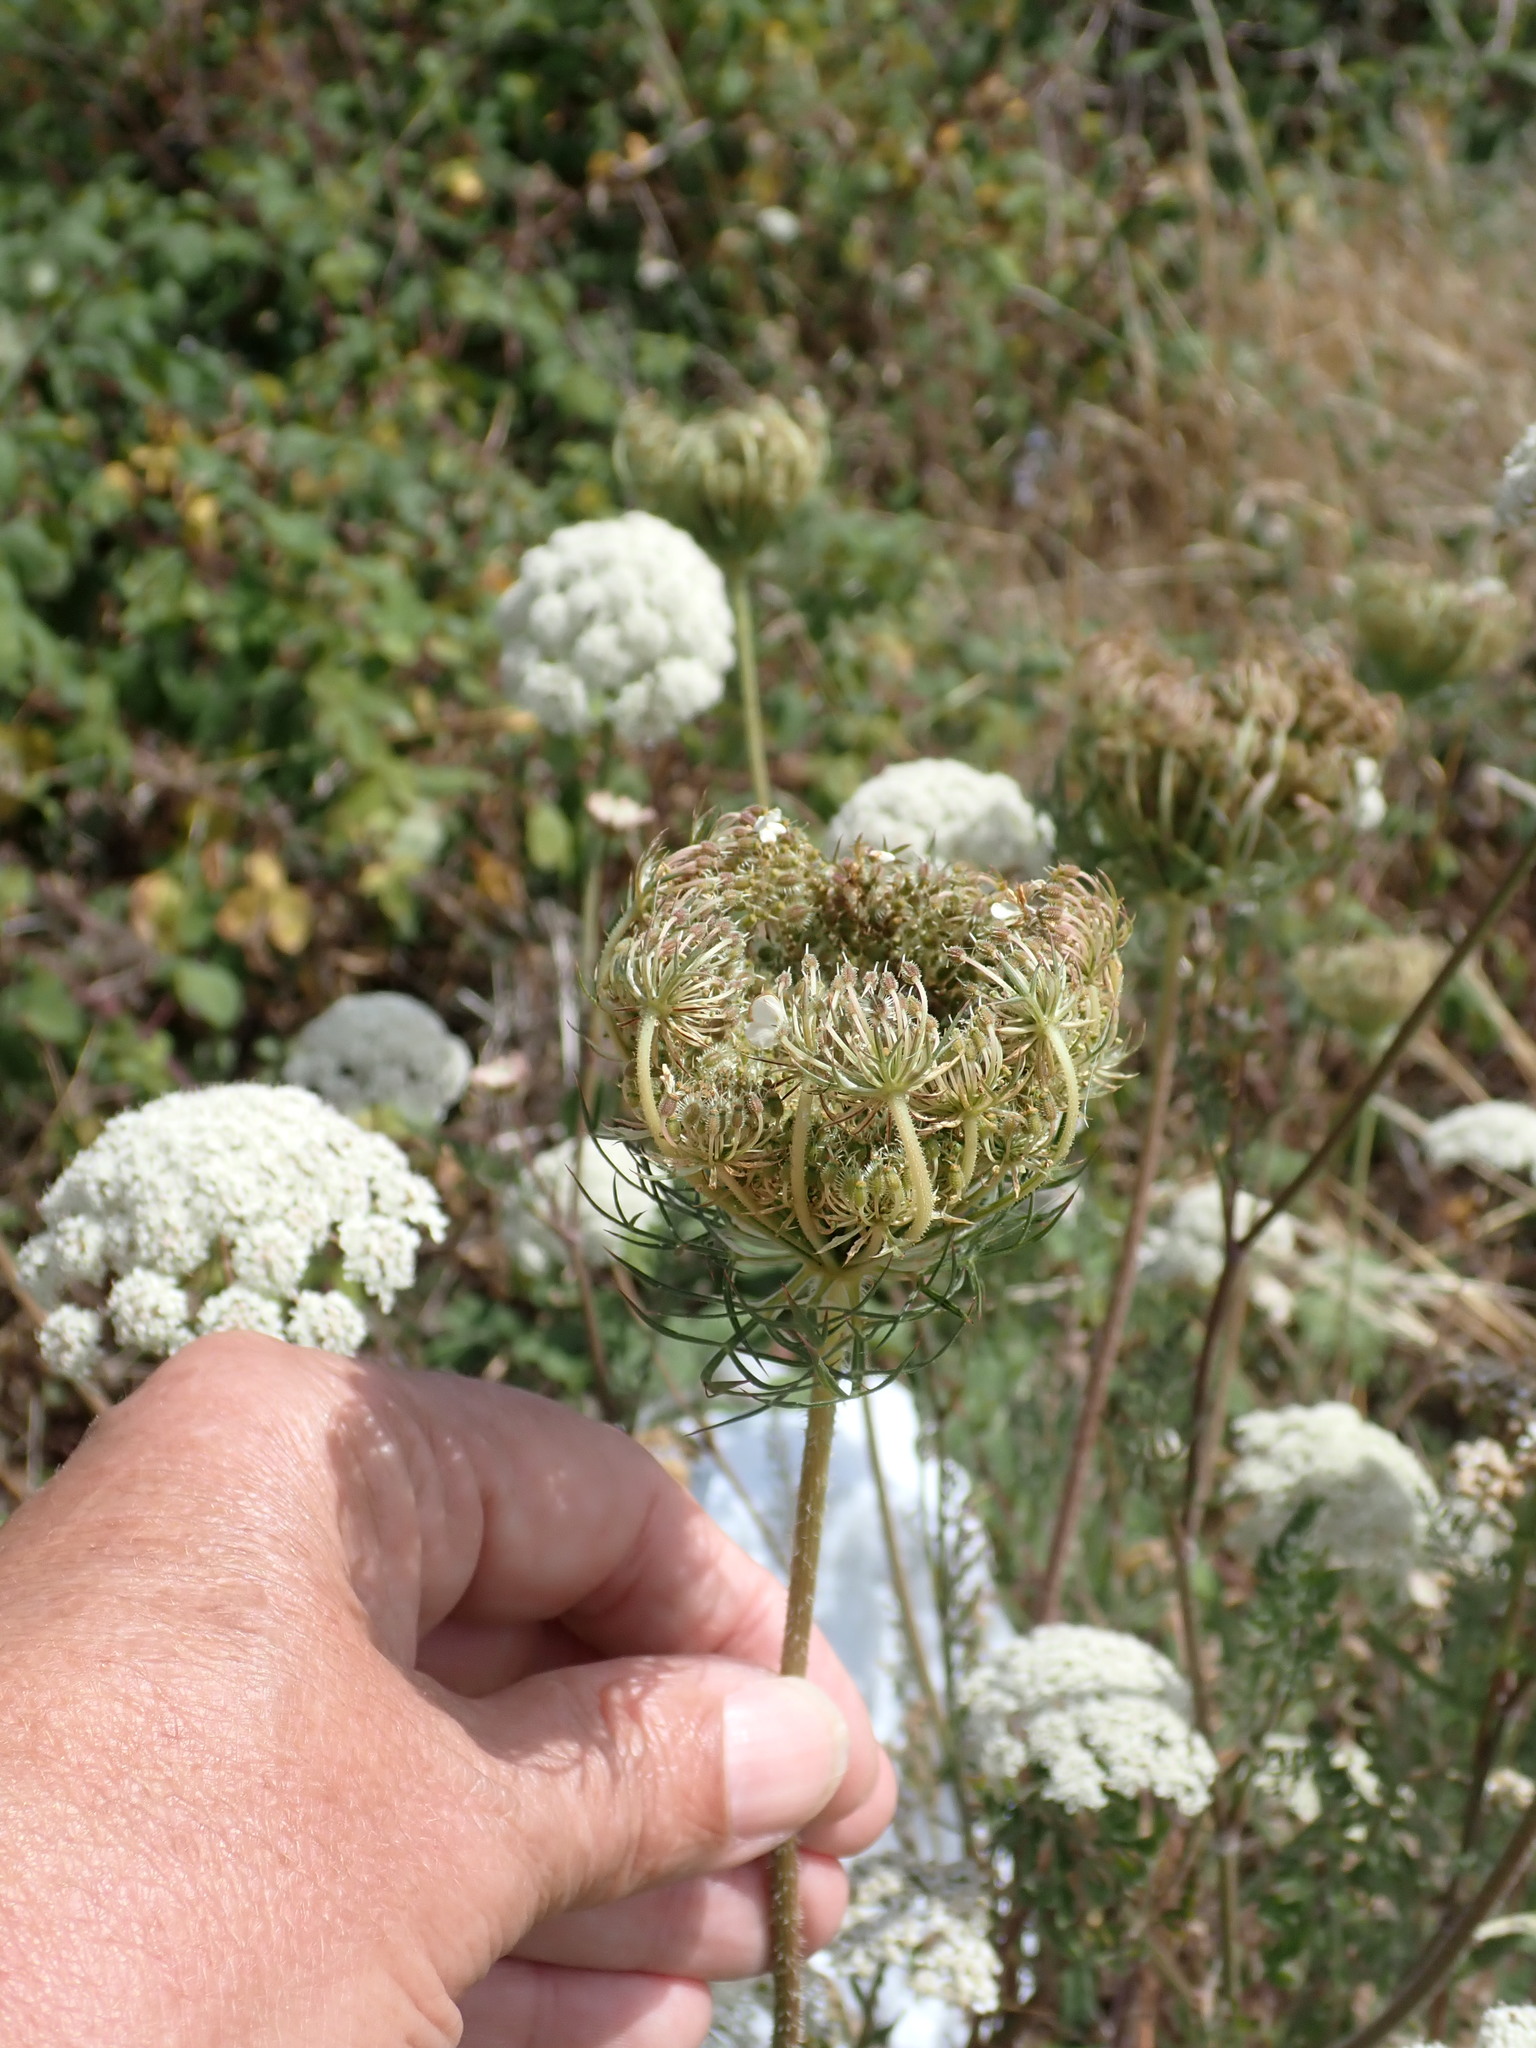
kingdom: Plantae
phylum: Tracheophyta
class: Magnoliopsida
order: Apiales
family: Apiaceae
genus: Daucus
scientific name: Daucus carota
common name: Wild carrot
